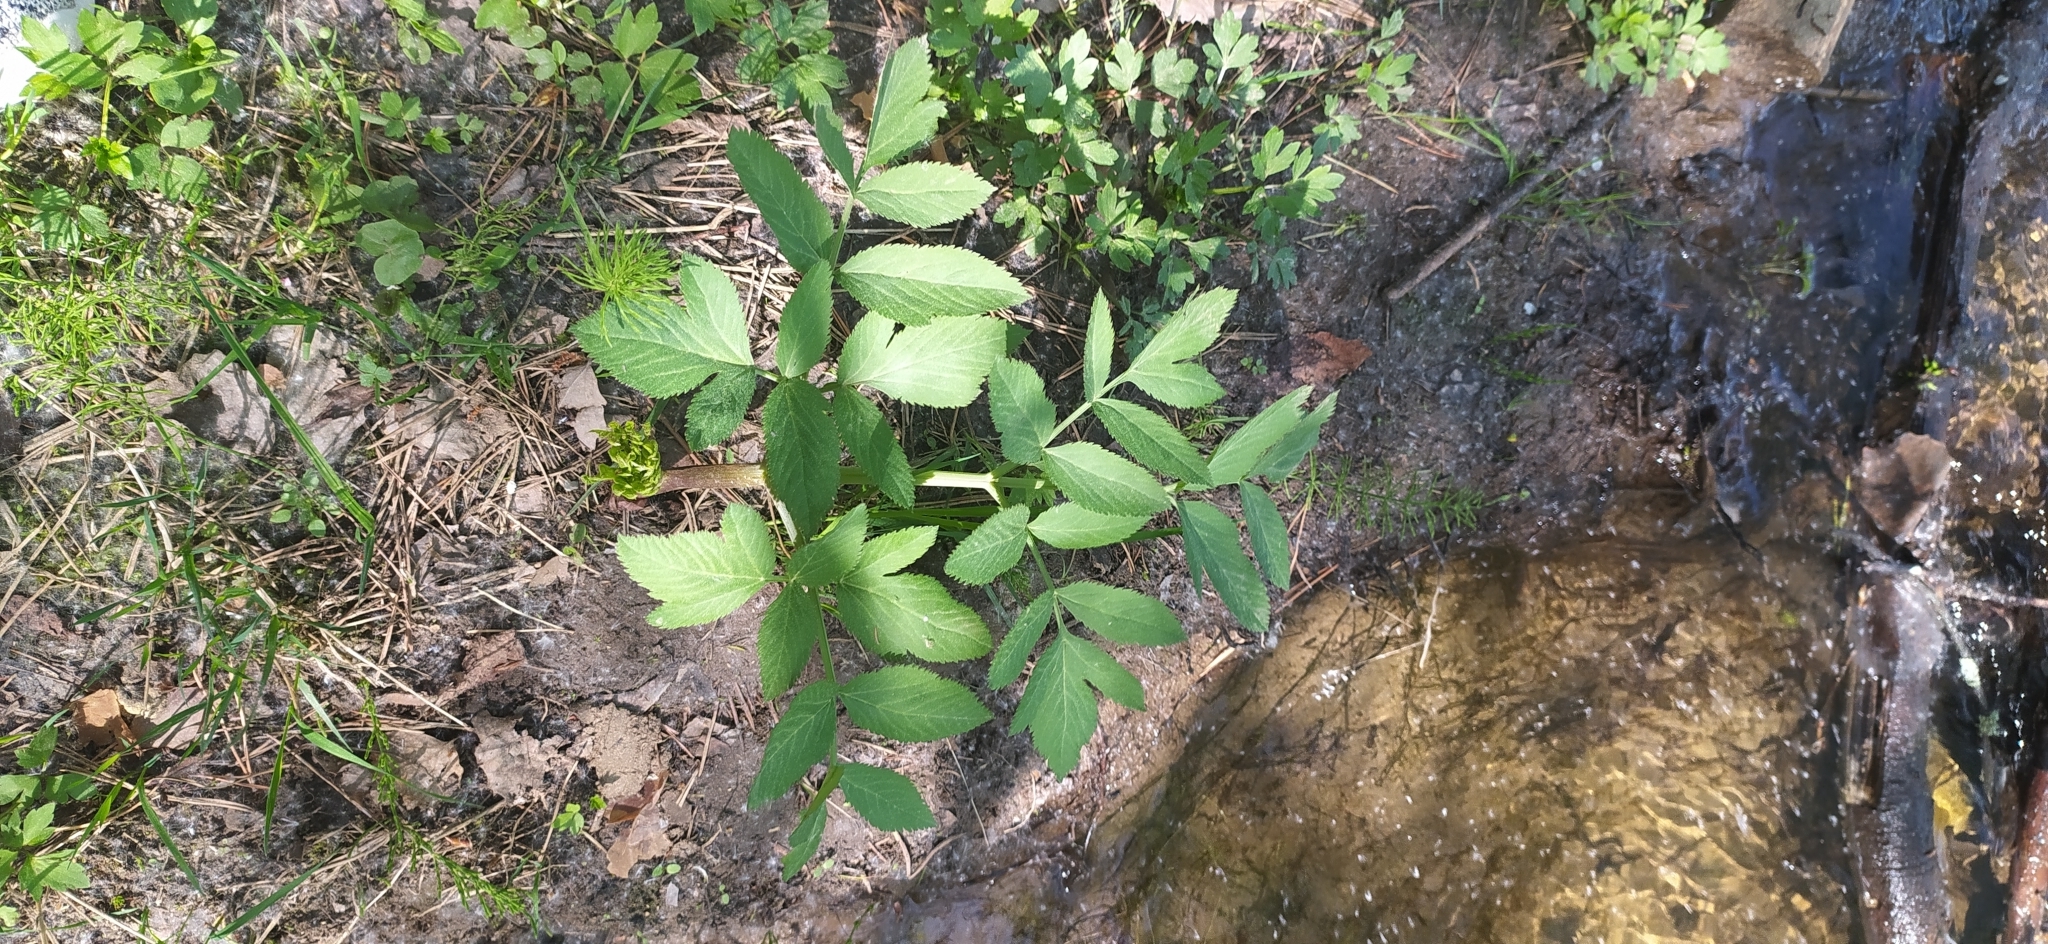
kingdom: Plantae
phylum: Tracheophyta
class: Magnoliopsida
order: Apiales
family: Apiaceae
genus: Angelica
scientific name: Angelica sylvestris
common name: Wild angelica
